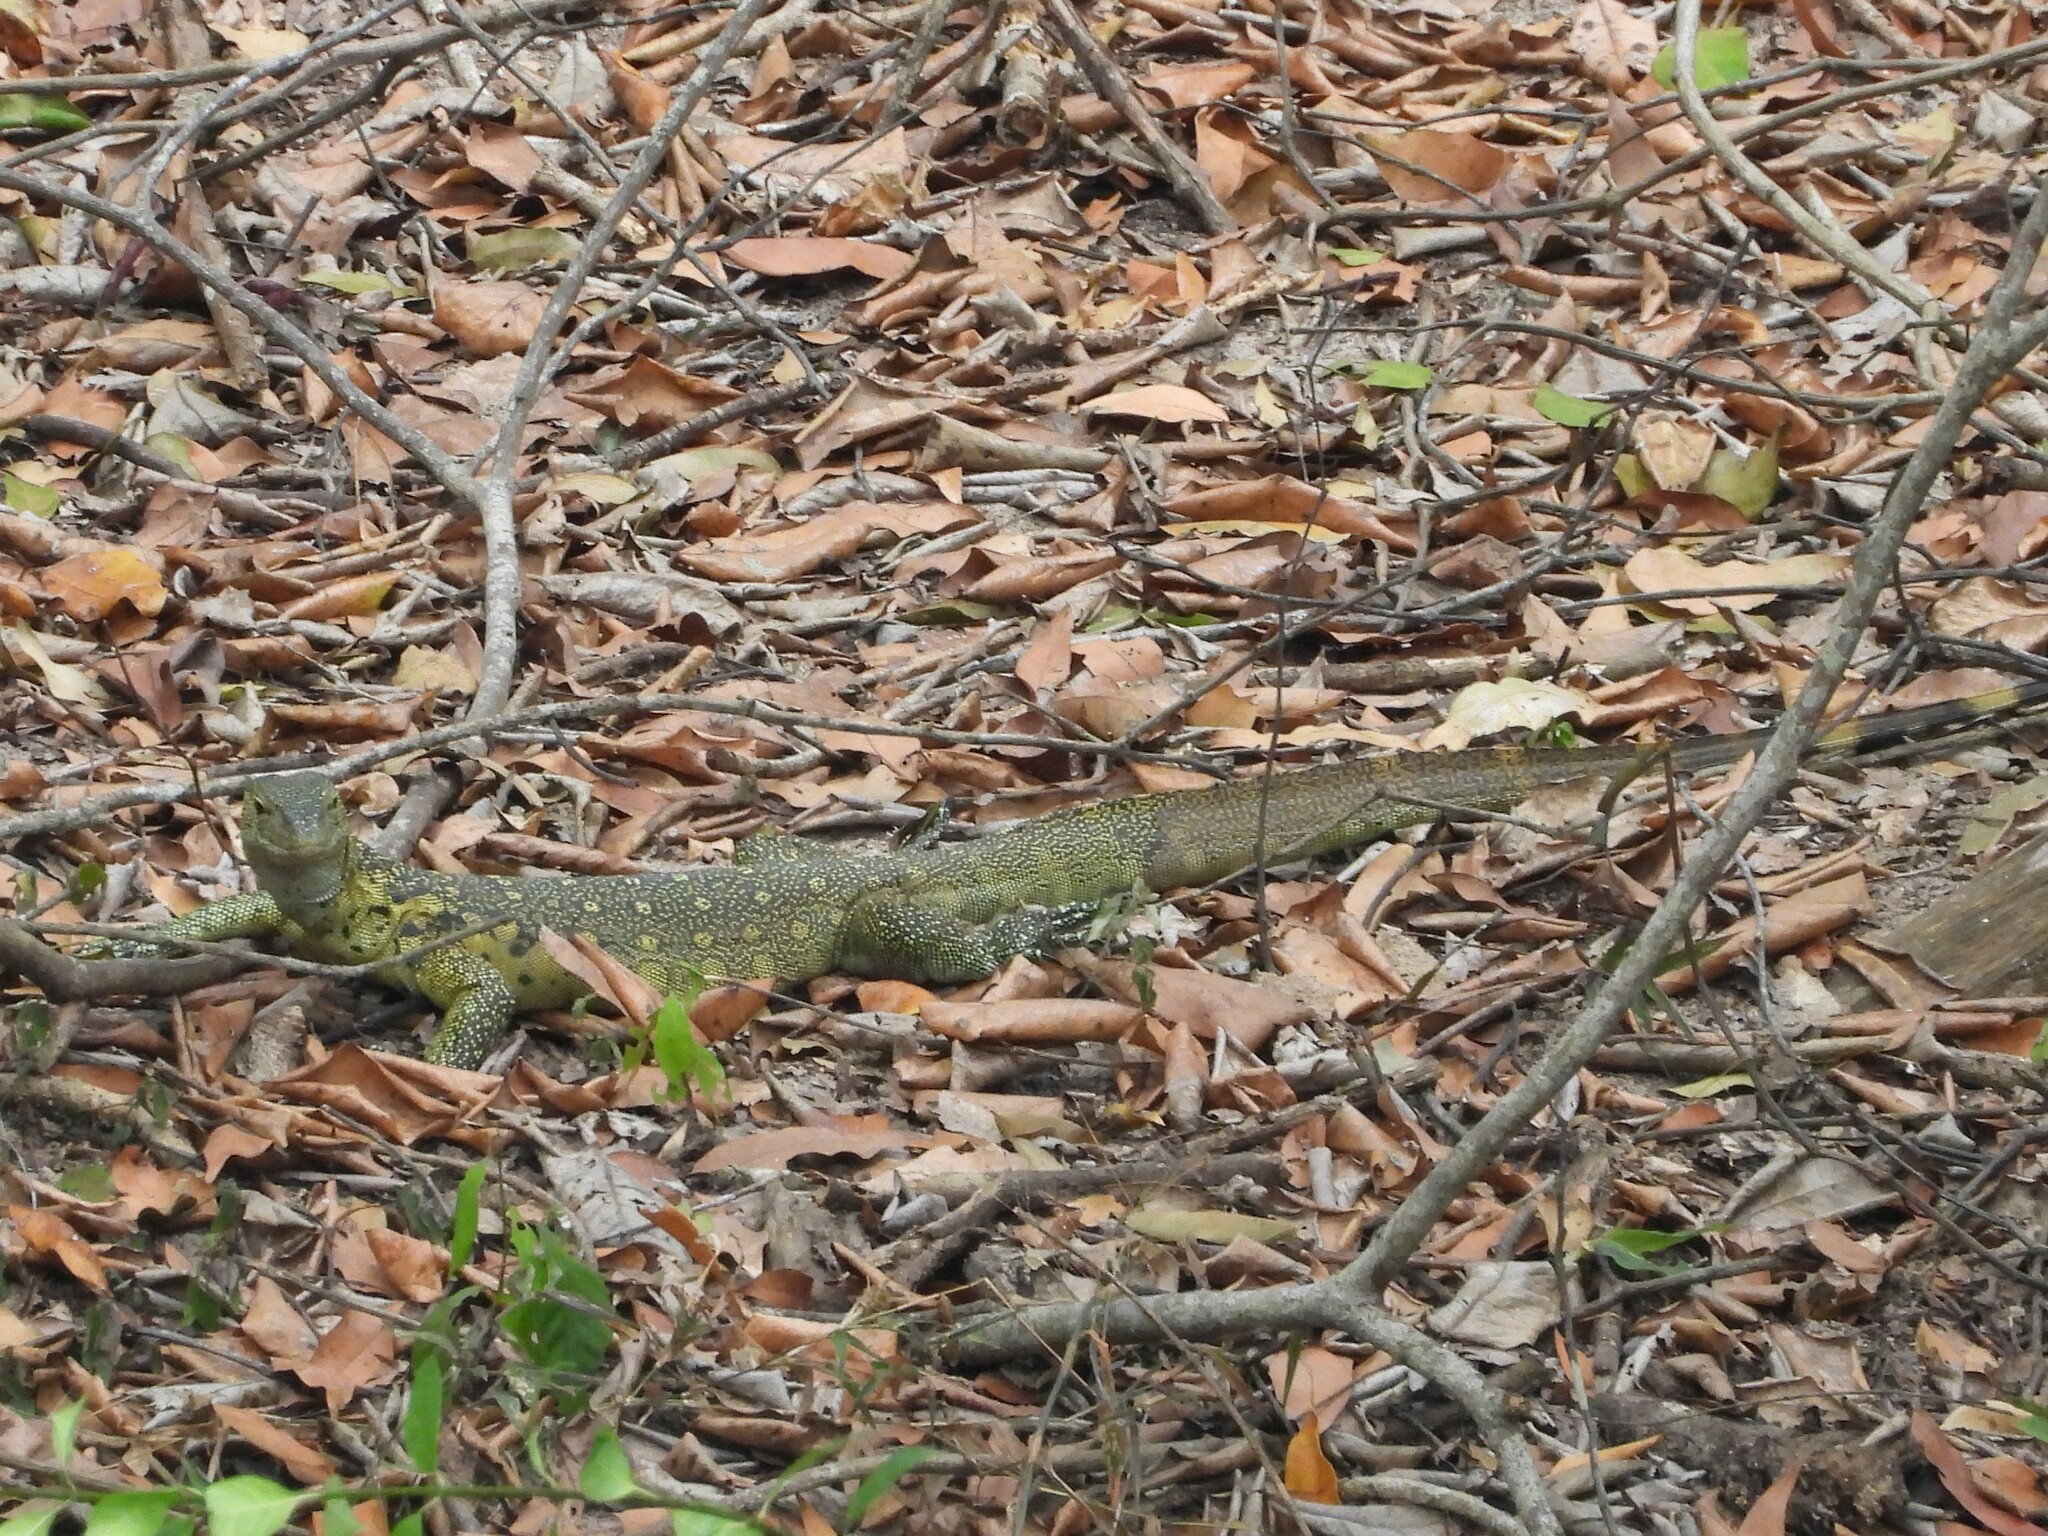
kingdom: Animalia
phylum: Chordata
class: Squamata
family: Varanidae
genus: Varanus
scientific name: Varanus niloticus
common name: Nile monitor
